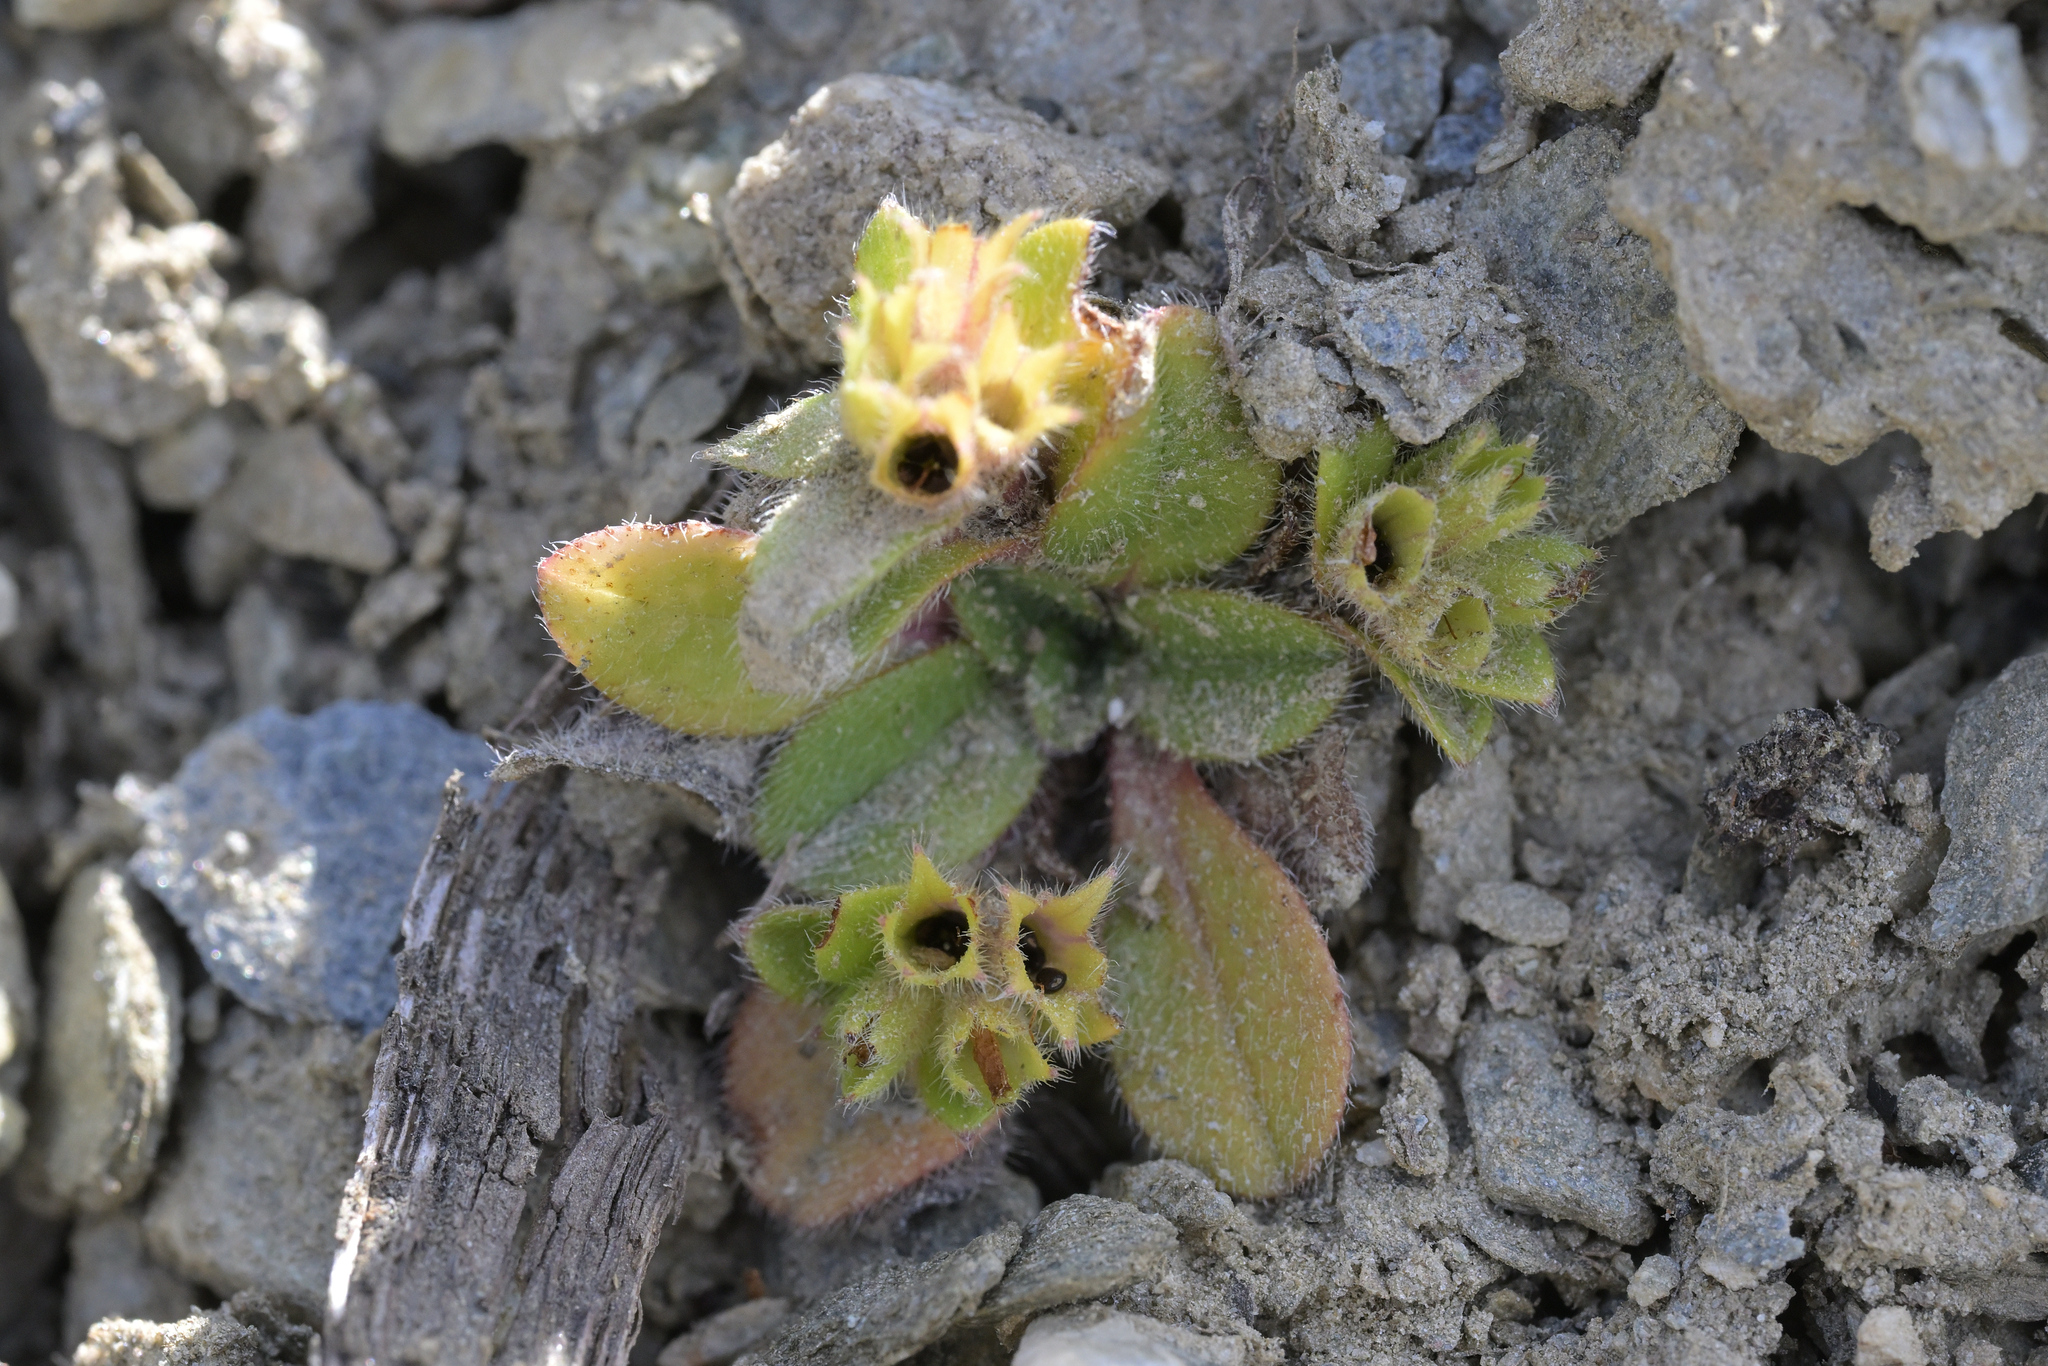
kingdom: Plantae
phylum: Tracheophyta
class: Magnoliopsida
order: Boraginales
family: Boraginaceae
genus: Myosotis
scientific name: Myosotis lyallii
